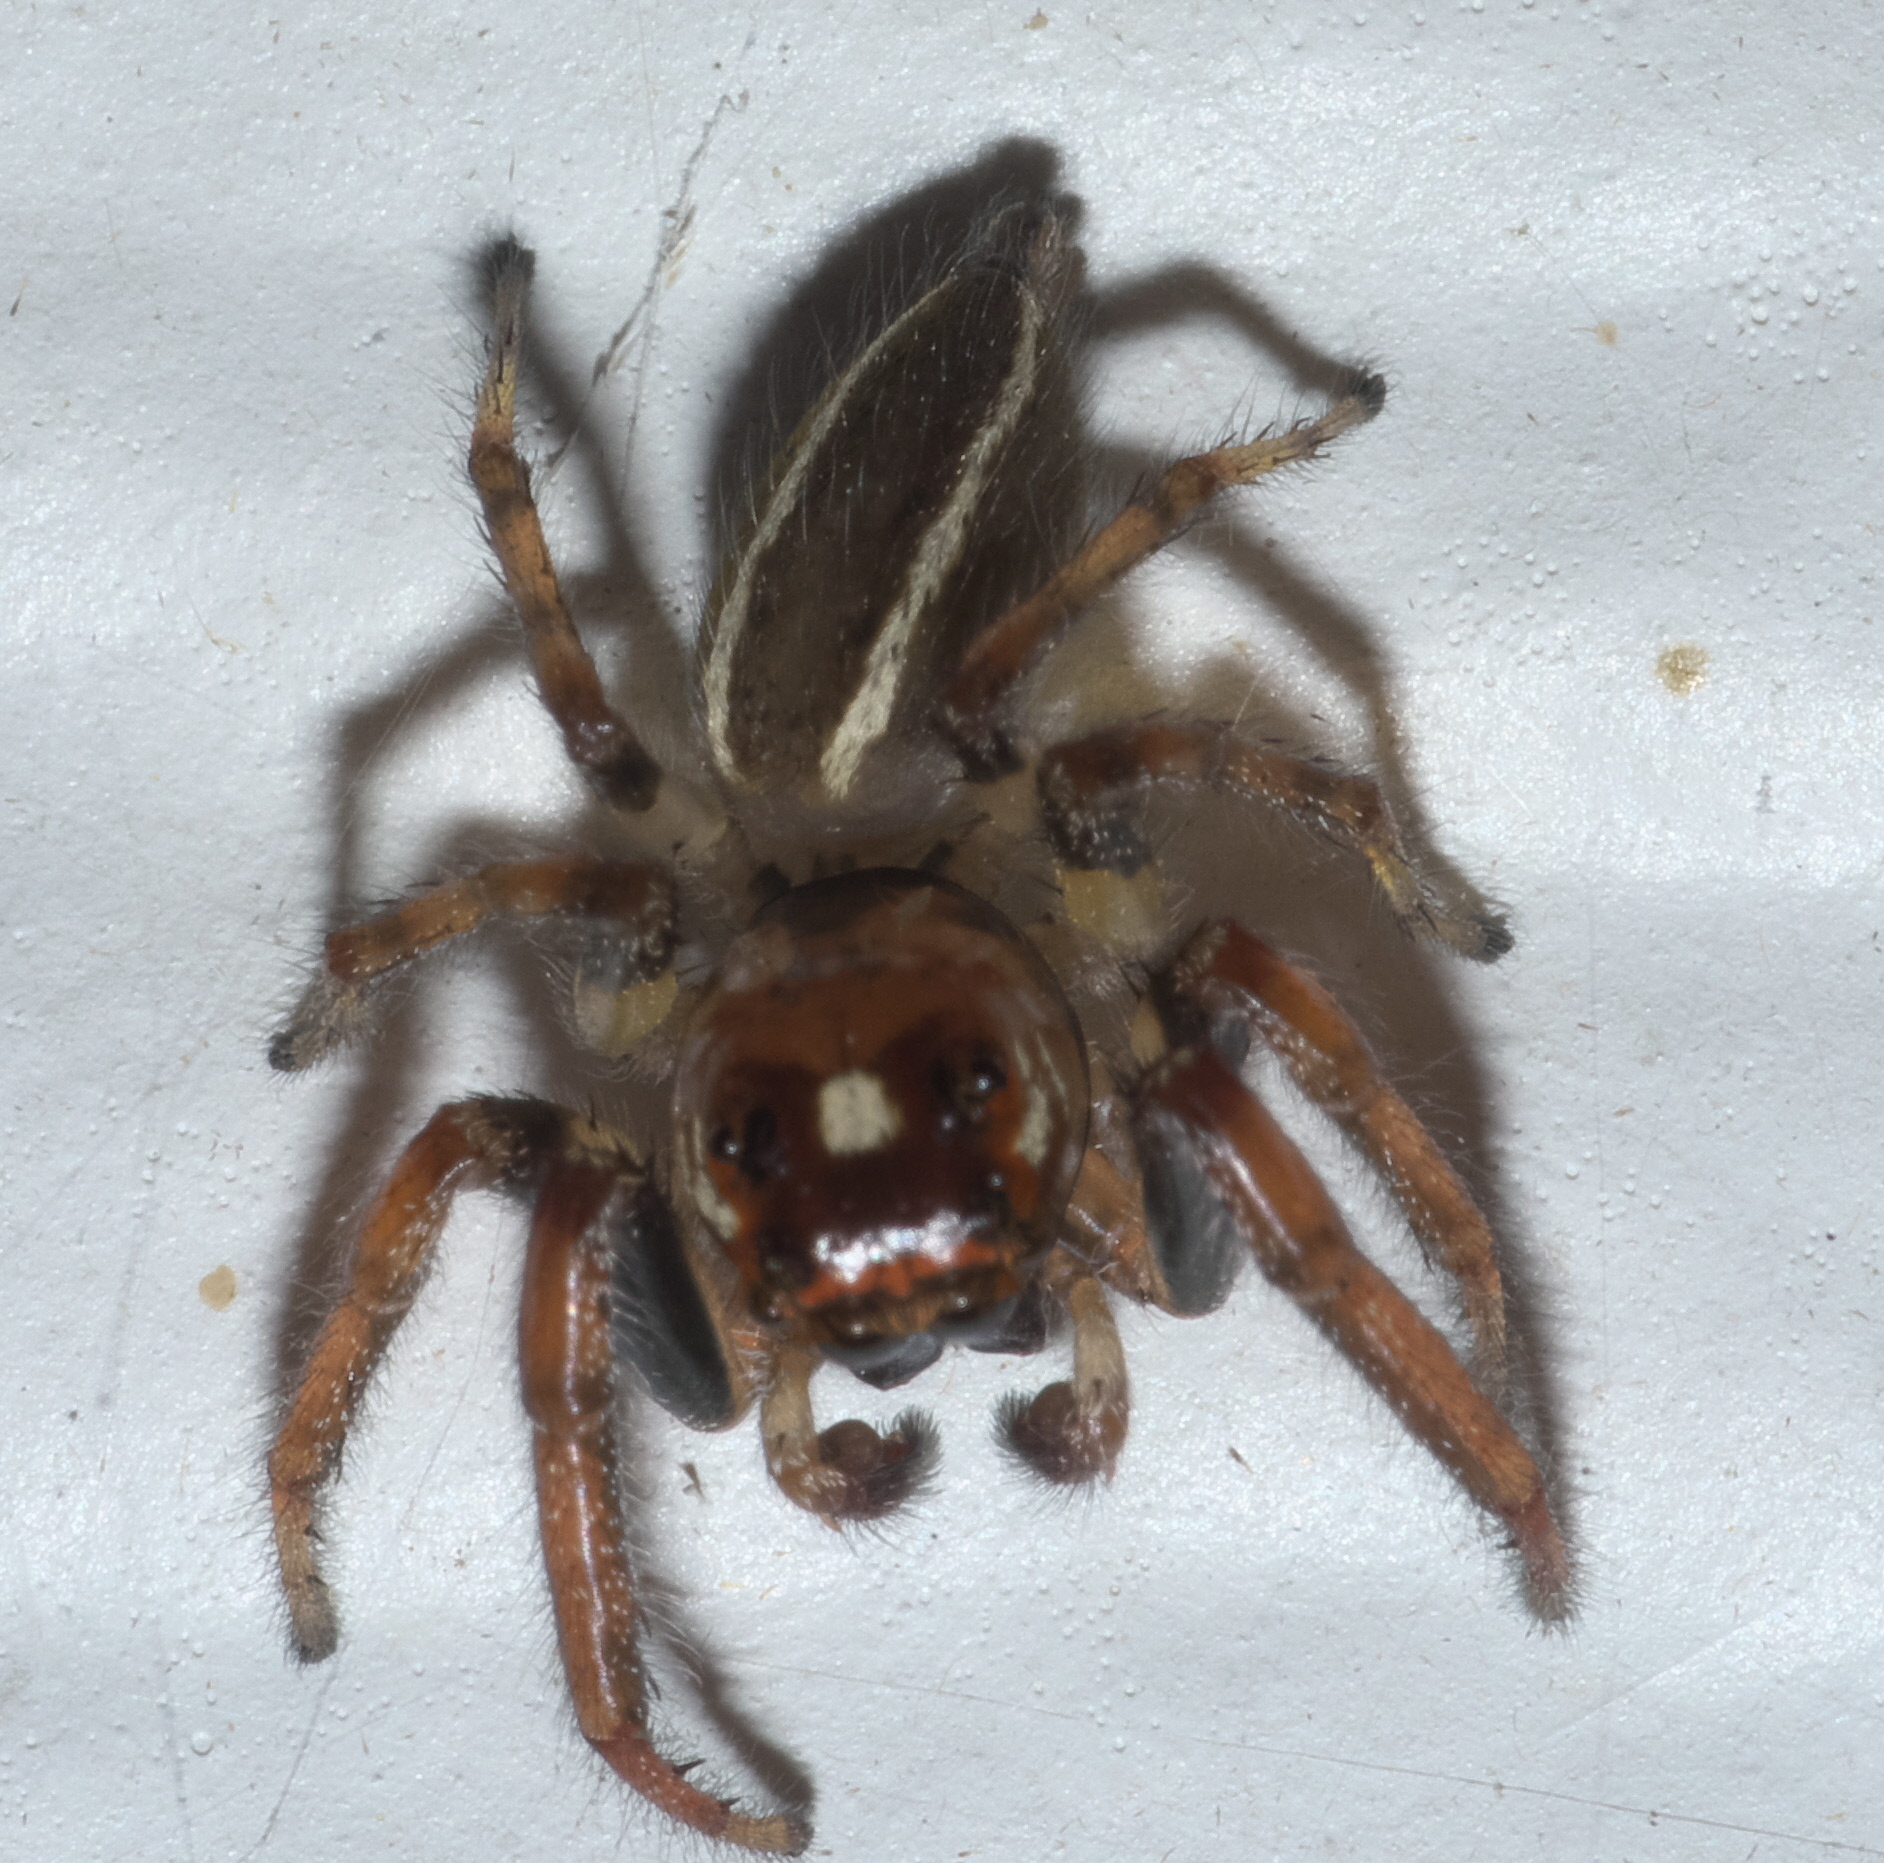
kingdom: Animalia
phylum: Arthropoda
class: Arachnida
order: Araneae
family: Salticidae
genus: Colonus
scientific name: Colonus sylvanus
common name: Jumping spiders
